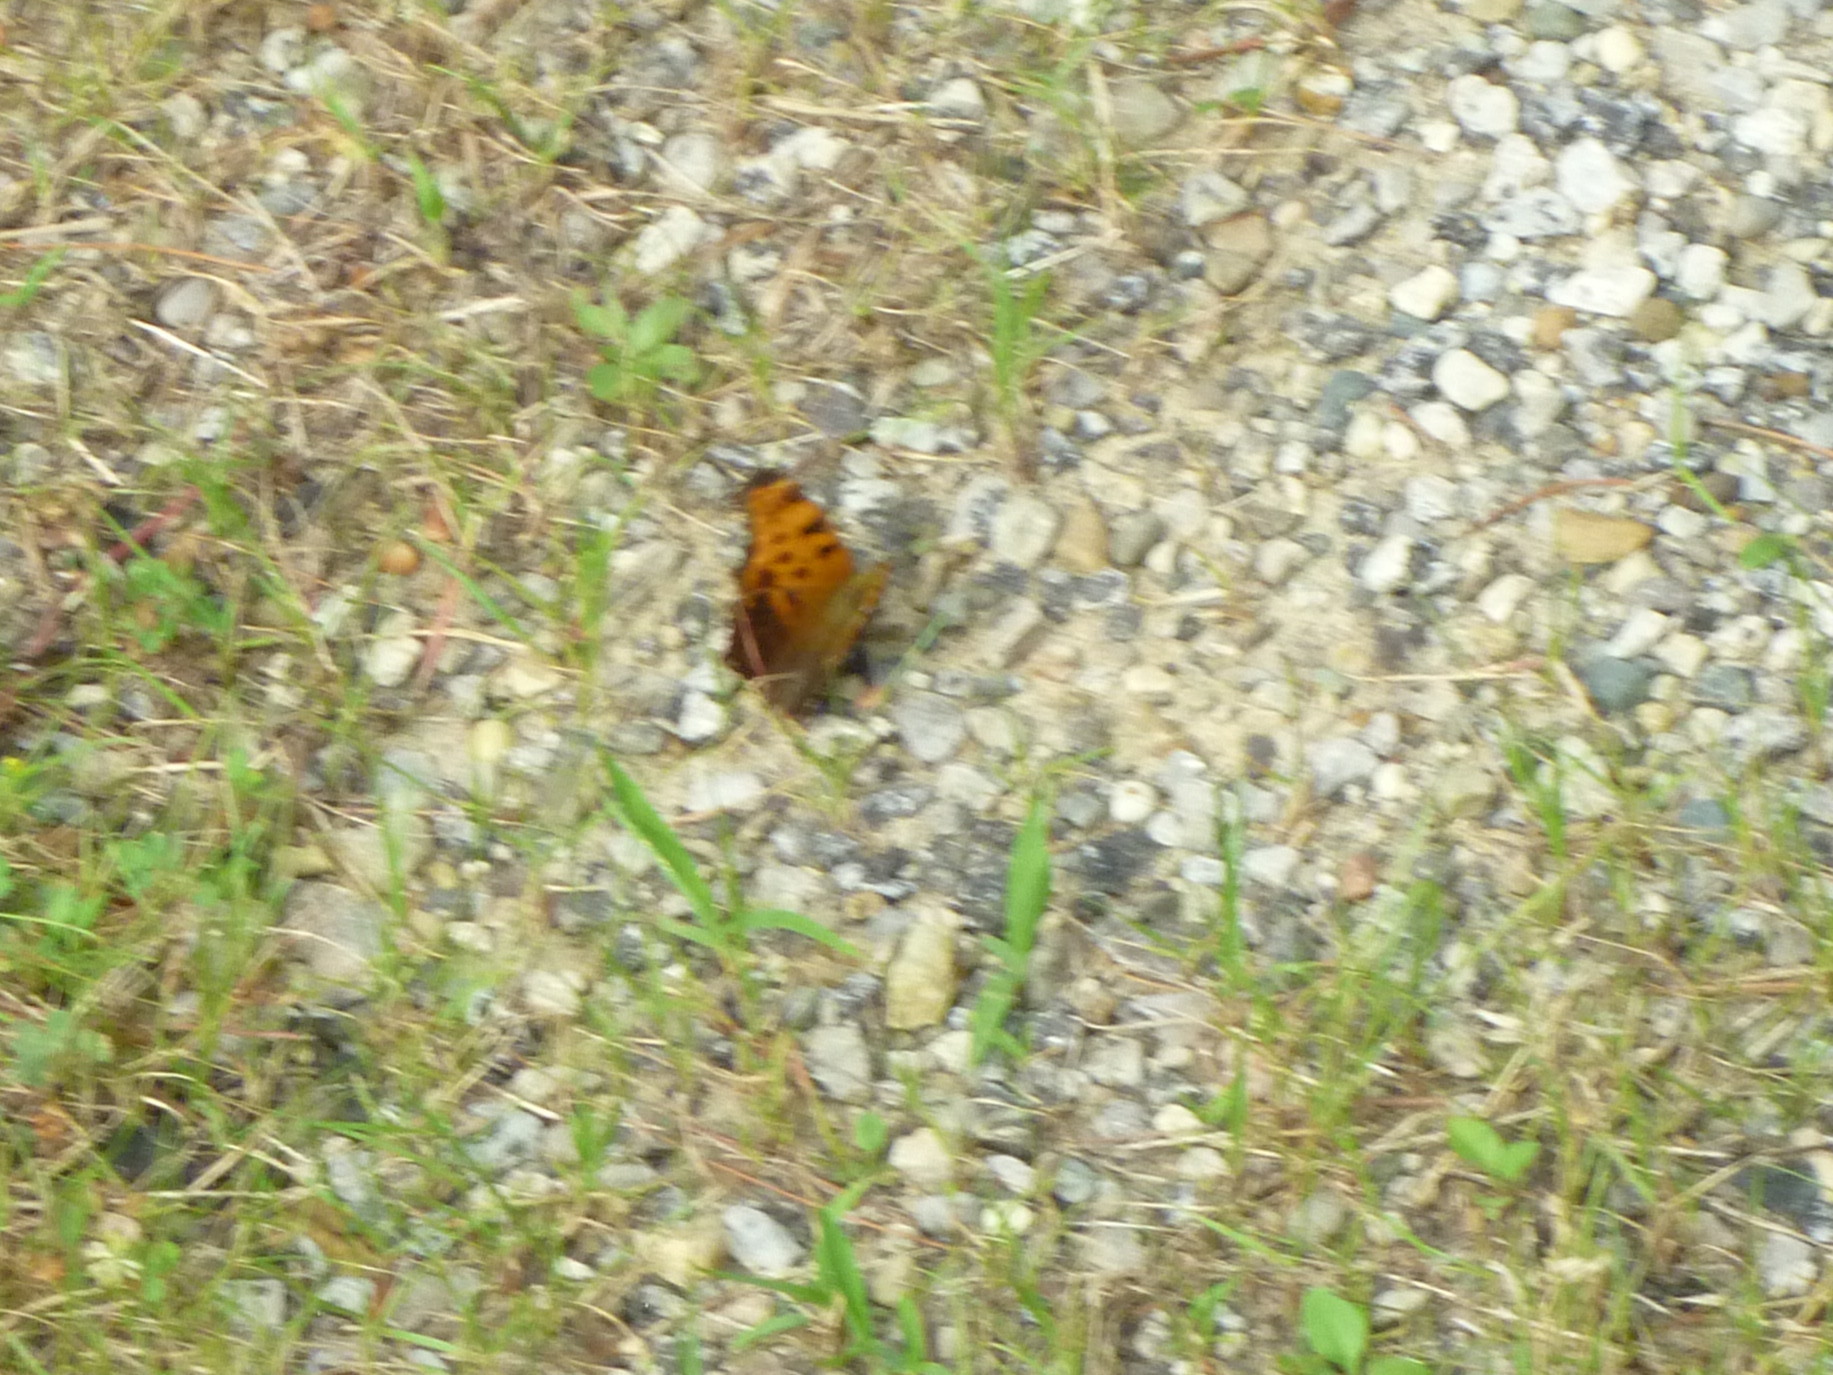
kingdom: Animalia
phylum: Arthropoda
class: Insecta
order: Lepidoptera
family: Nymphalidae
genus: Polygonia
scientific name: Polygonia comma
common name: Eastern comma
